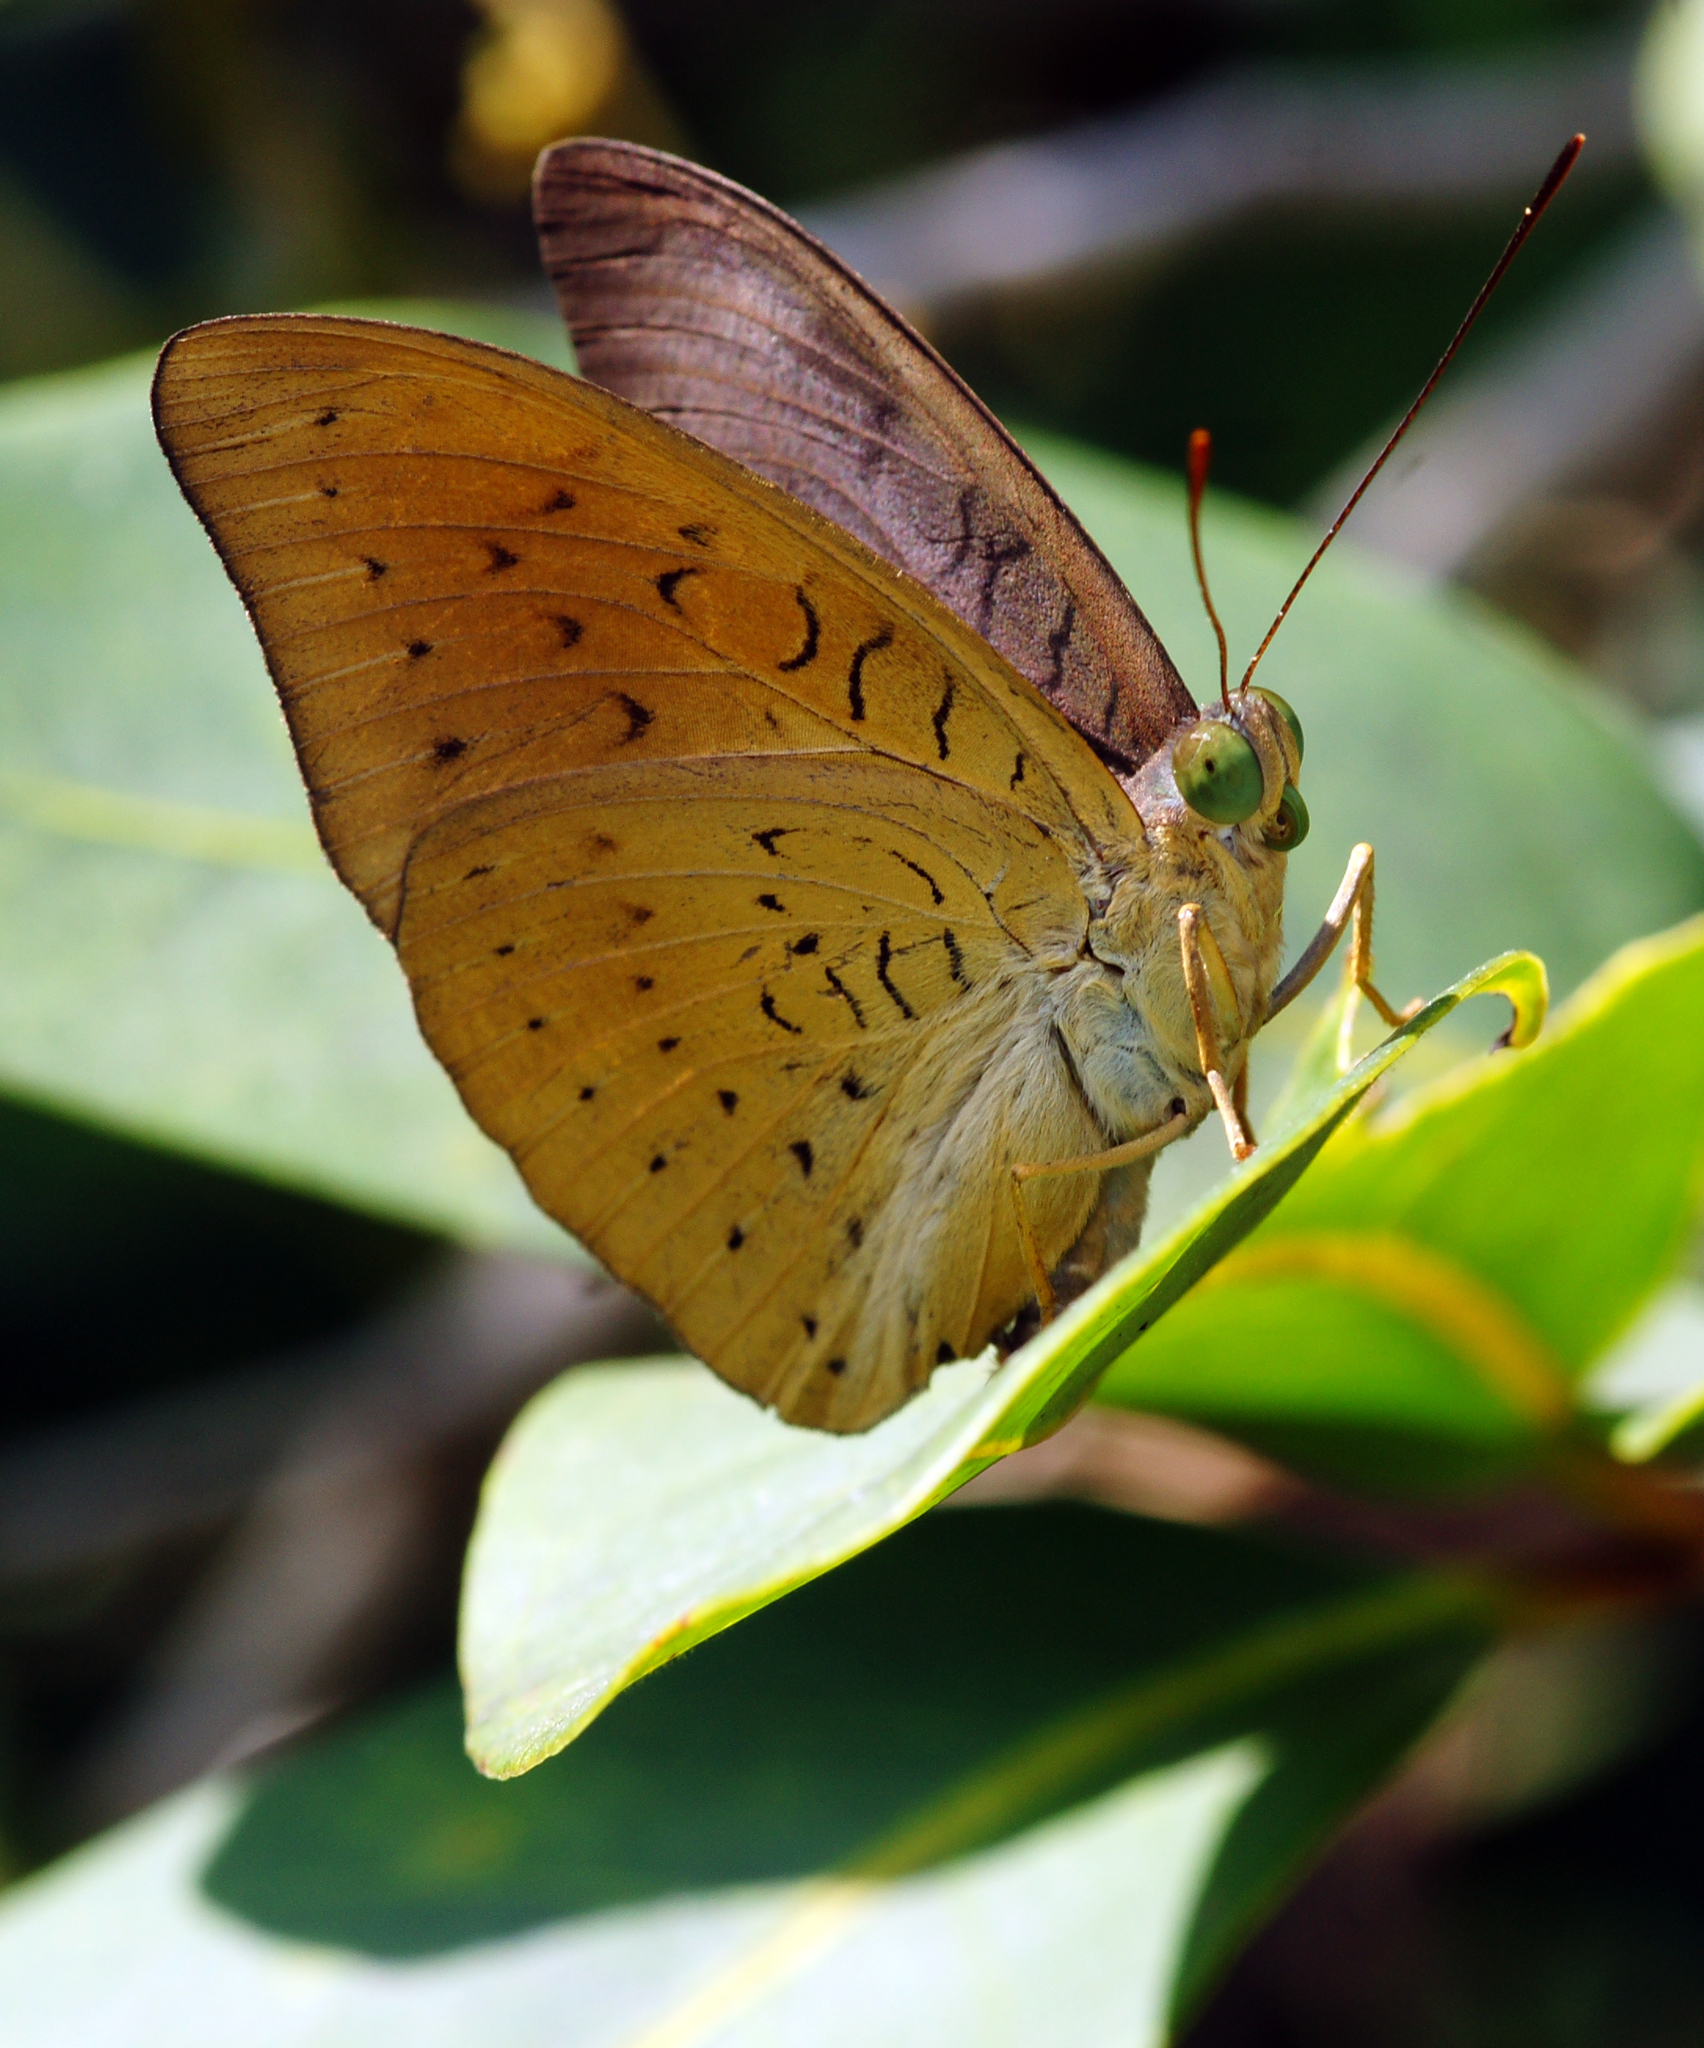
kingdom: Animalia
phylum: Arthropoda
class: Insecta
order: Lepidoptera
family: Nymphalidae
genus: Tanaecia
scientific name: Tanaecia jahnu
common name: Plain earl
